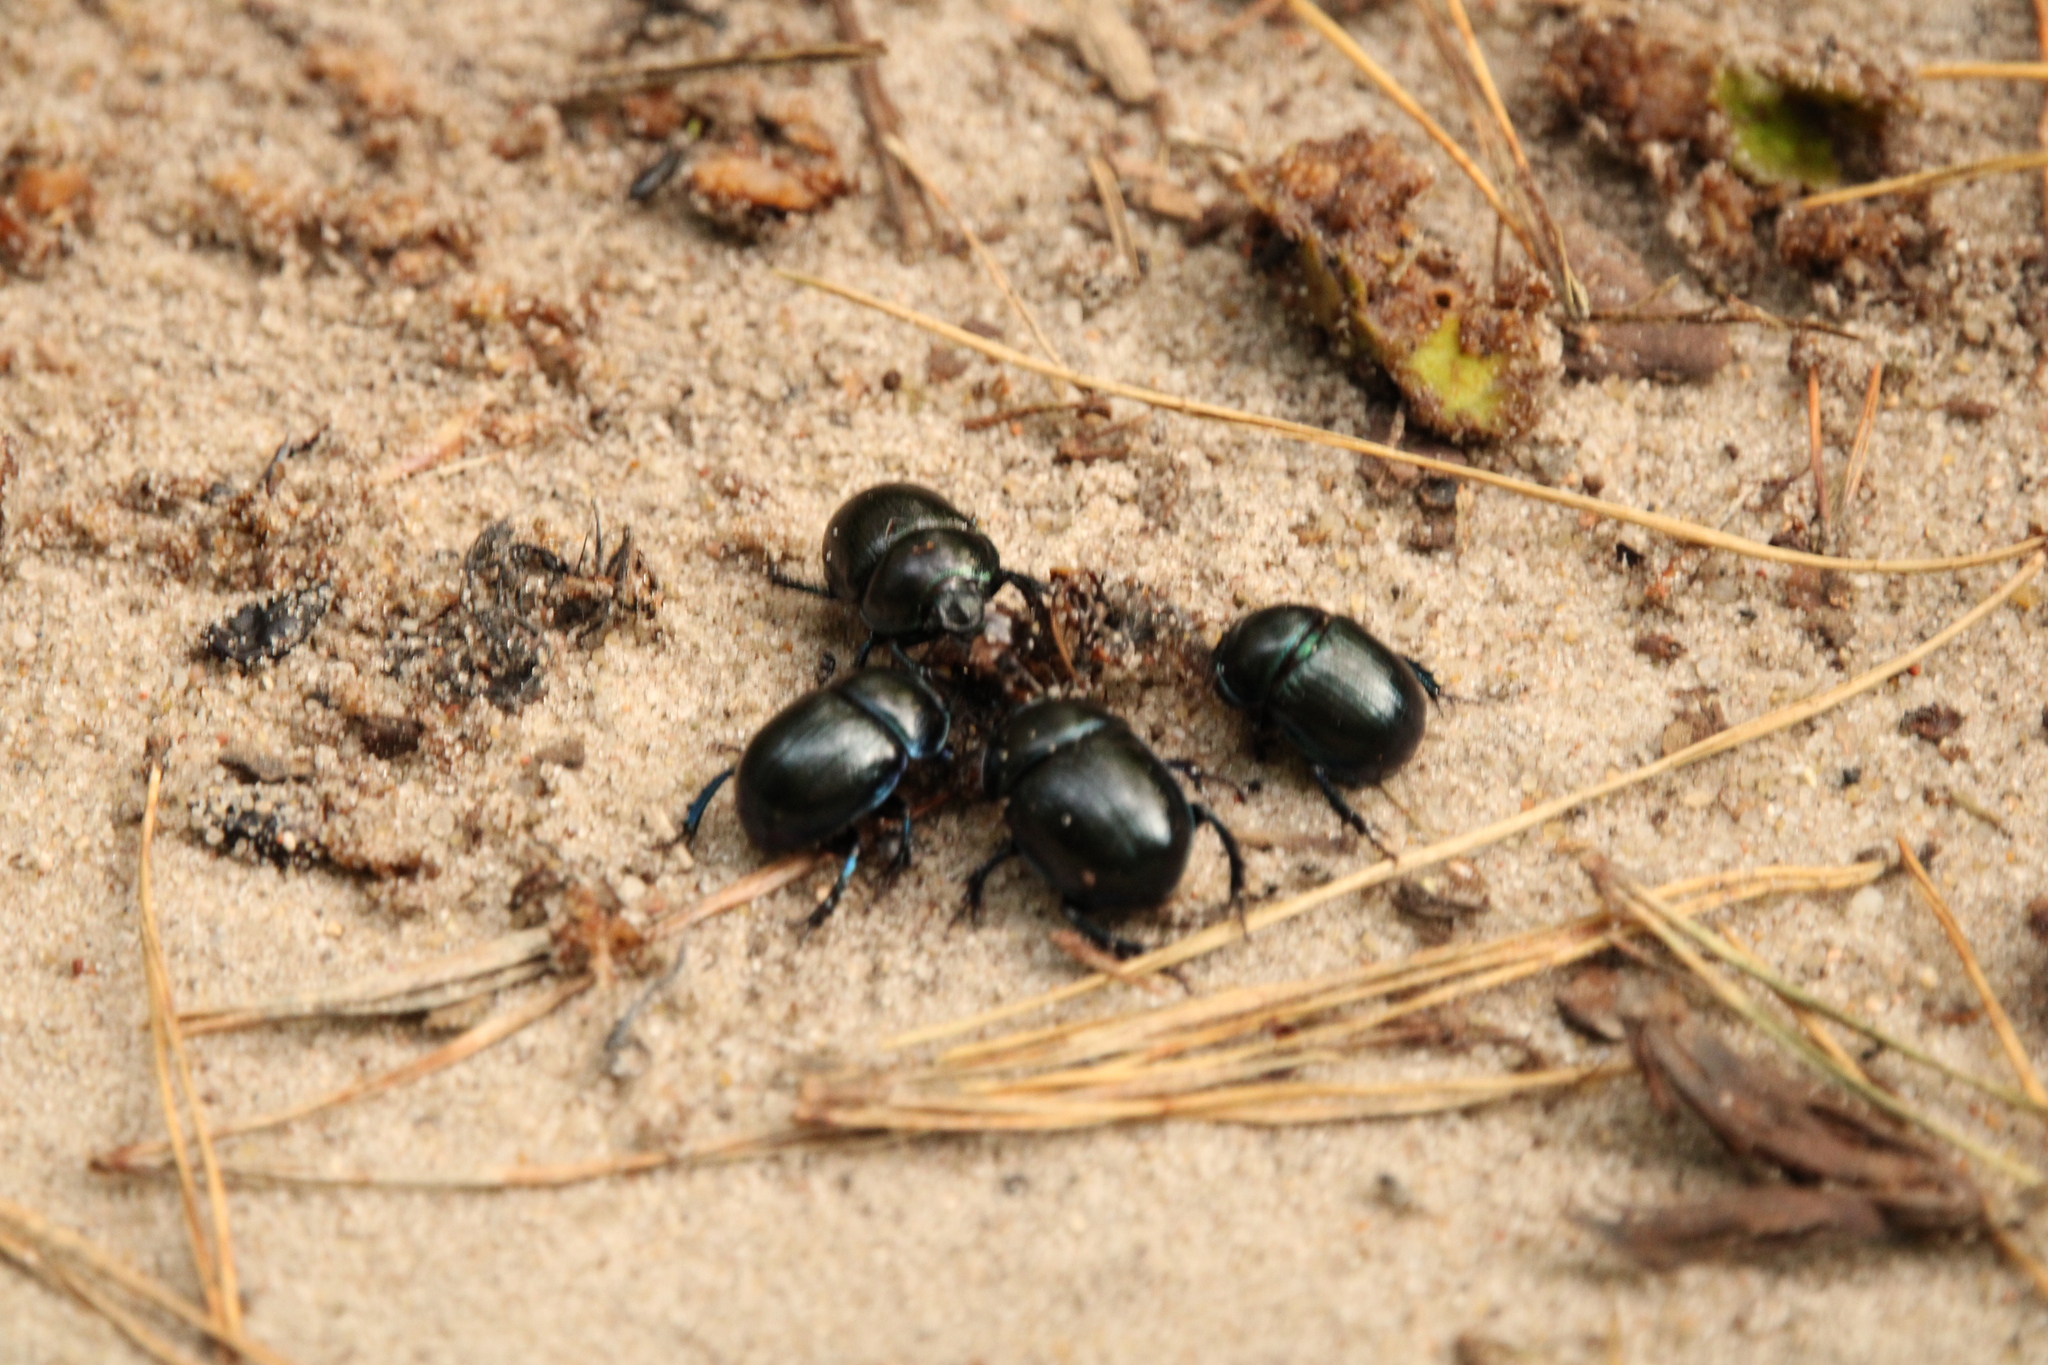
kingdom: Animalia
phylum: Arthropoda
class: Insecta
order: Coleoptera
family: Geotrupidae
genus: Anoplotrupes
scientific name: Anoplotrupes stercorosus
